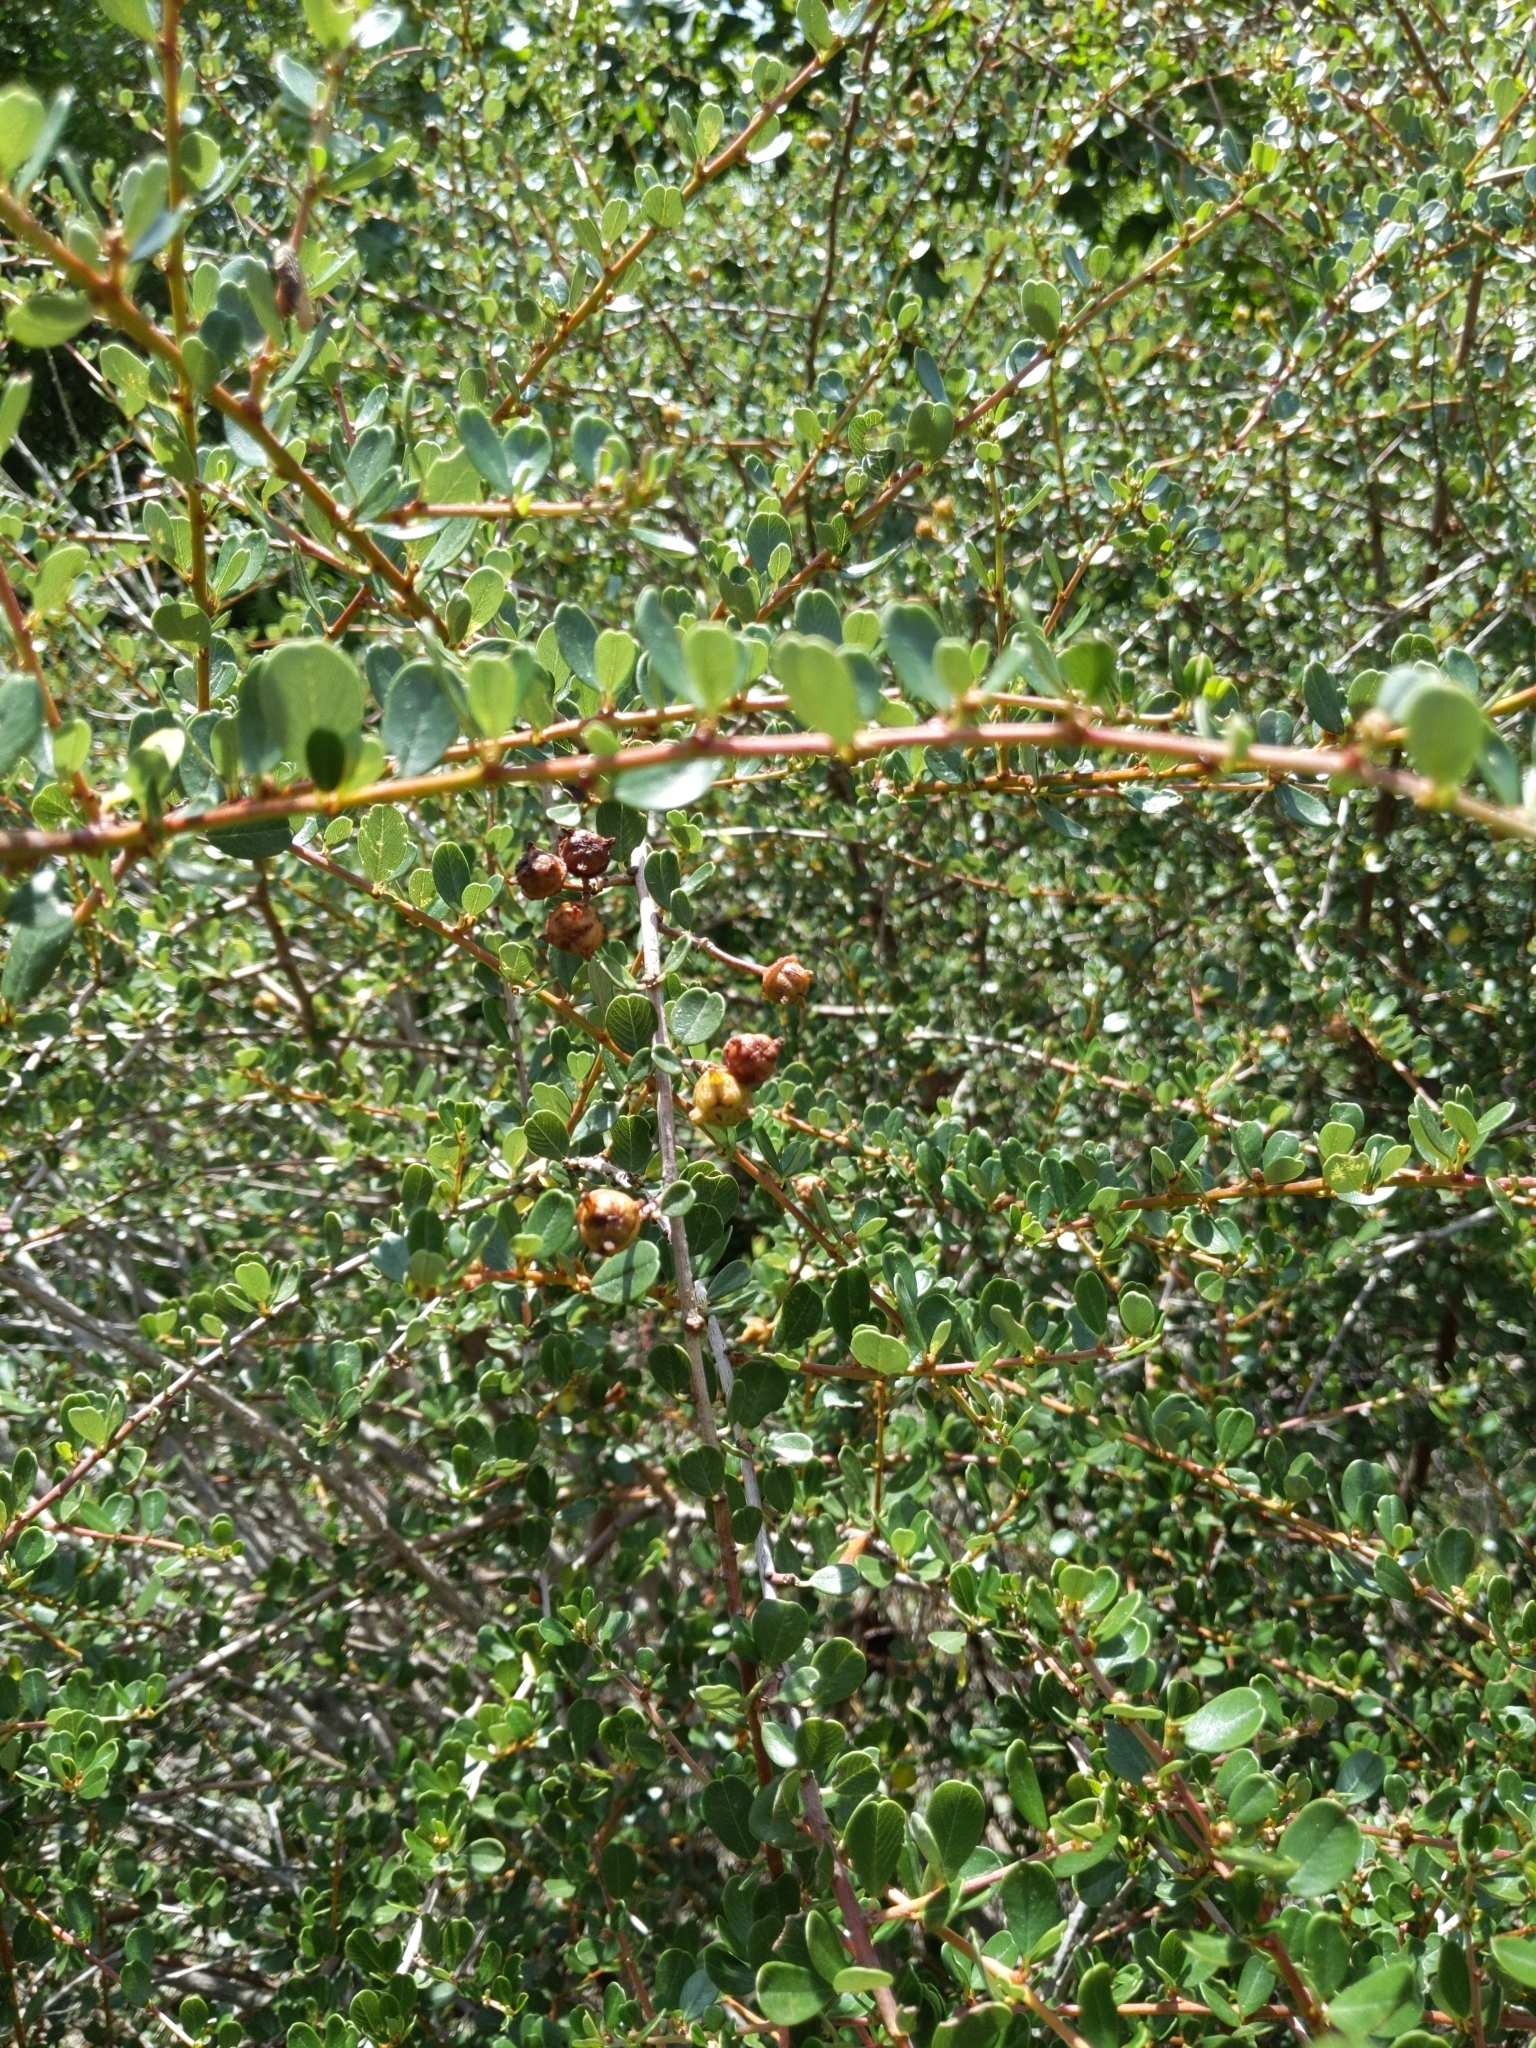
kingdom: Plantae
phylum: Tracheophyta
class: Magnoliopsida
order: Rosales
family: Rhamnaceae
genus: Ceanothus
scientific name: Ceanothus megacarpus
